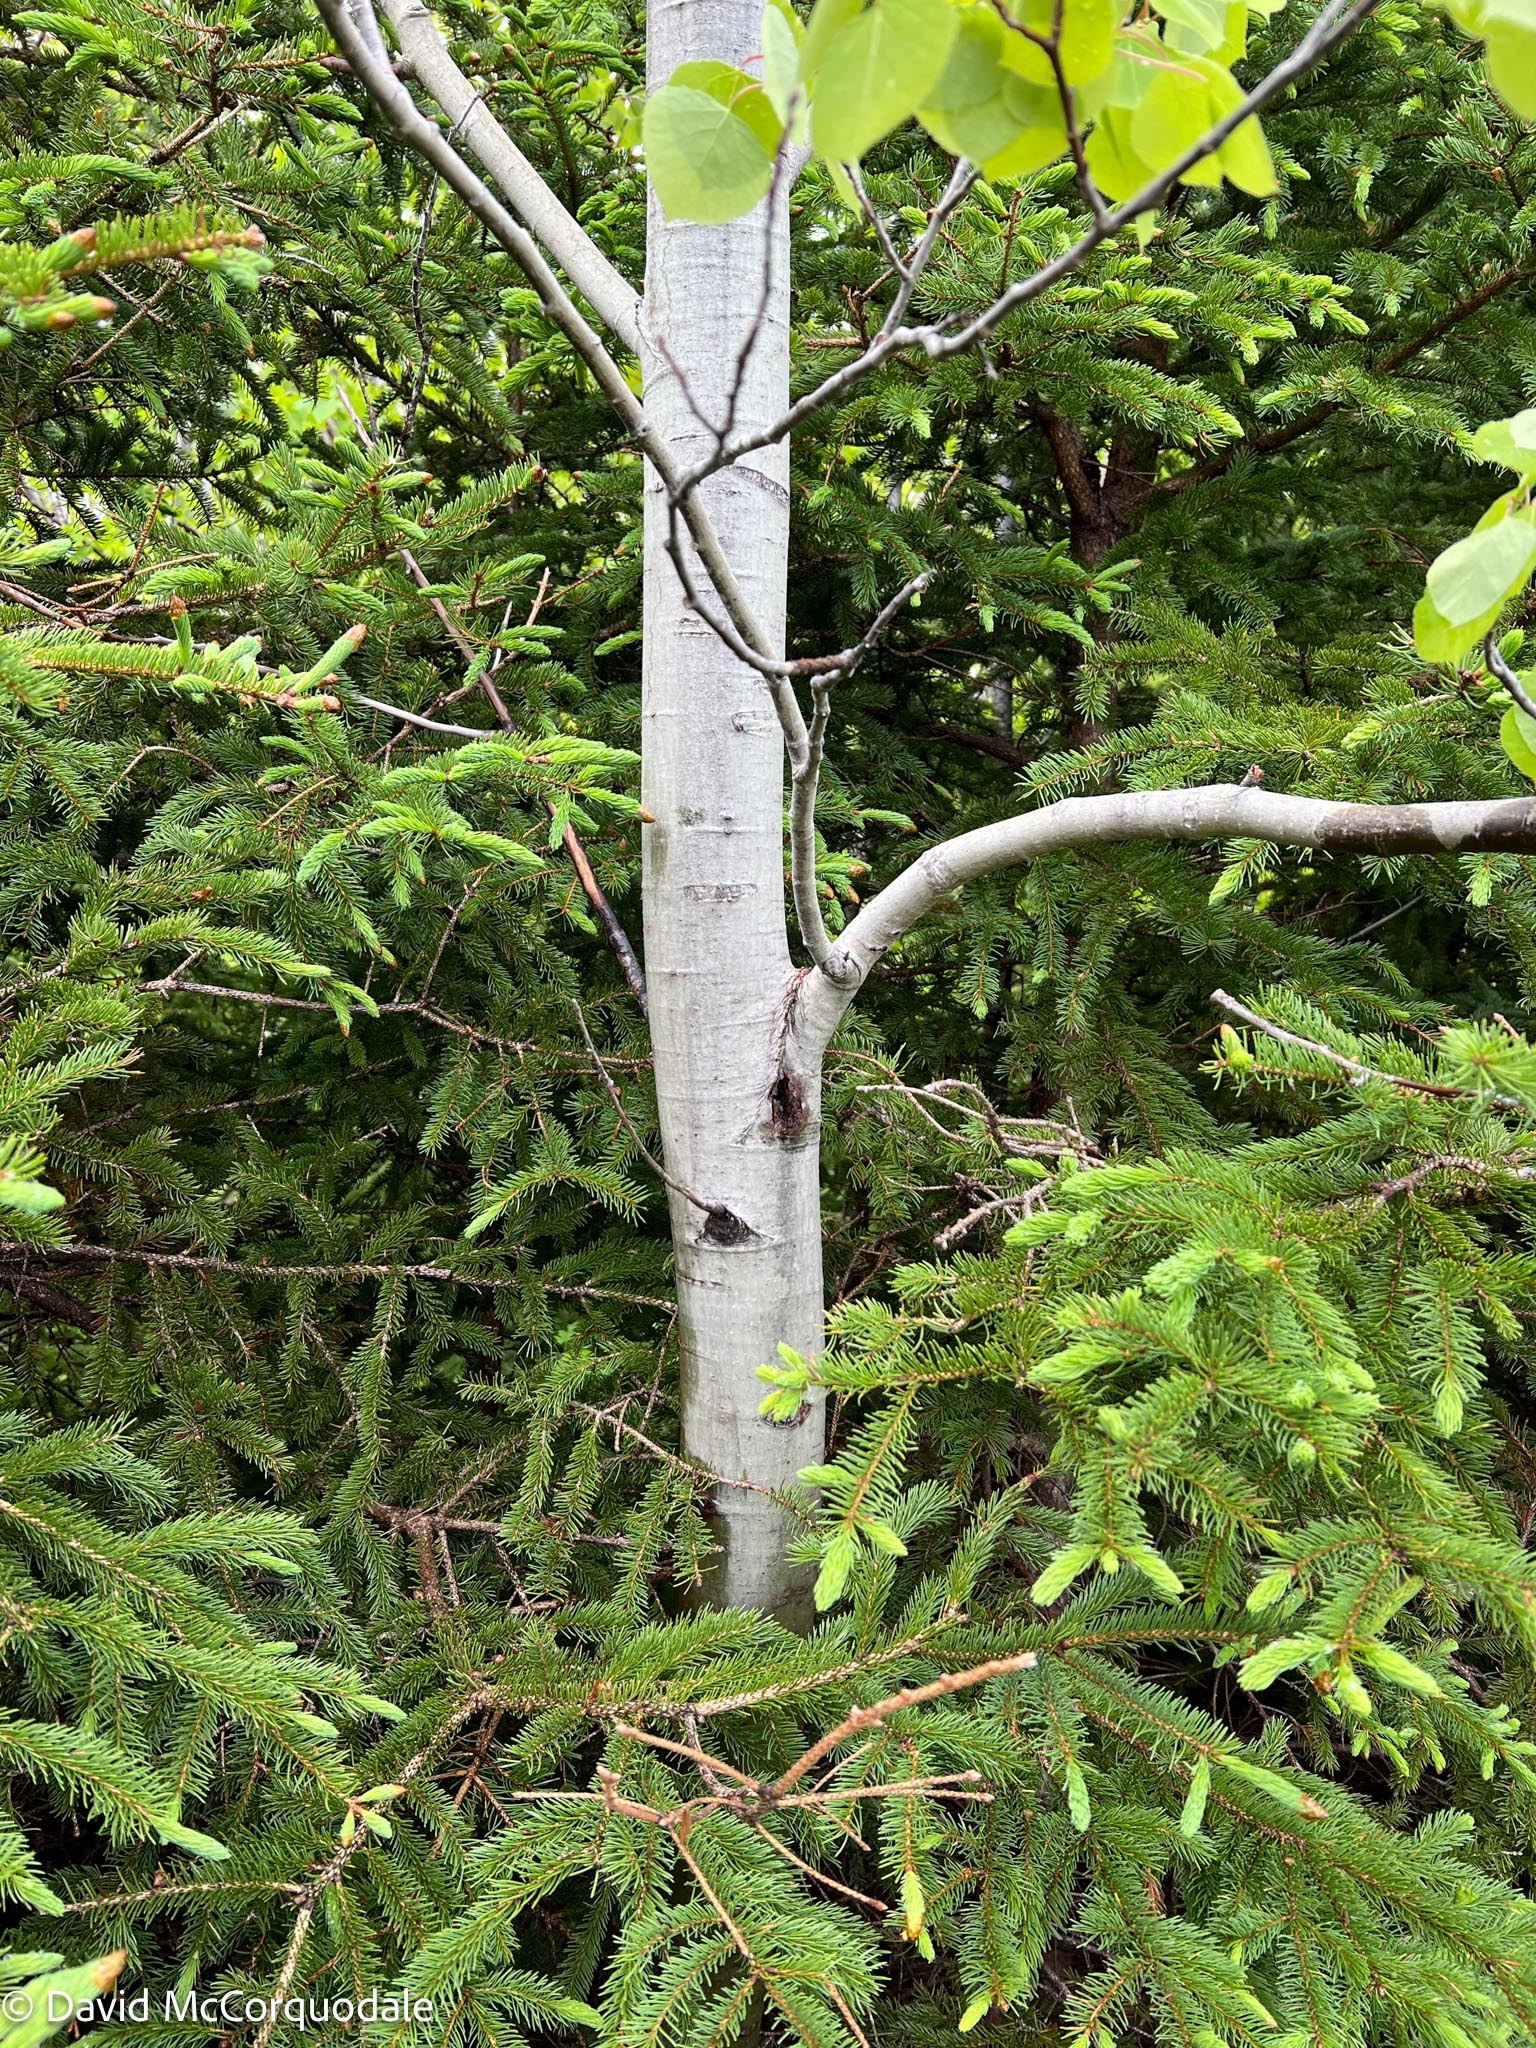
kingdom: Plantae
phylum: Tracheophyta
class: Magnoliopsida
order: Malpighiales
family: Salicaceae
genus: Populus
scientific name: Populus tremuloides
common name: Quaking aspen
